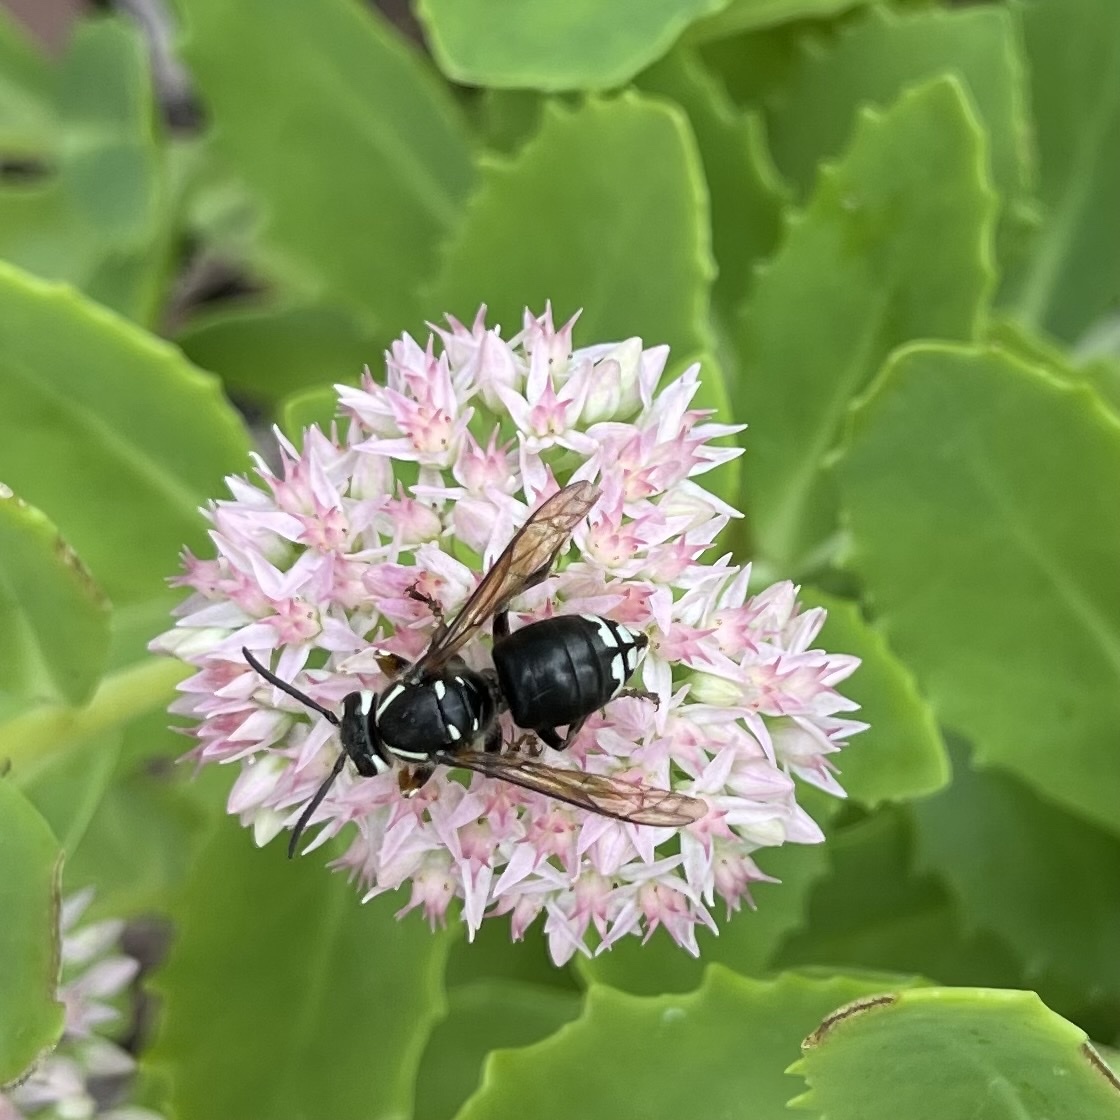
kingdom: Animalia
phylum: Arthropoda
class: Insecta
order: Hymenoptera
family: Vespidae
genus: Dolichovespula
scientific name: Dolichovespula maculata
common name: Bald-faced hornet
